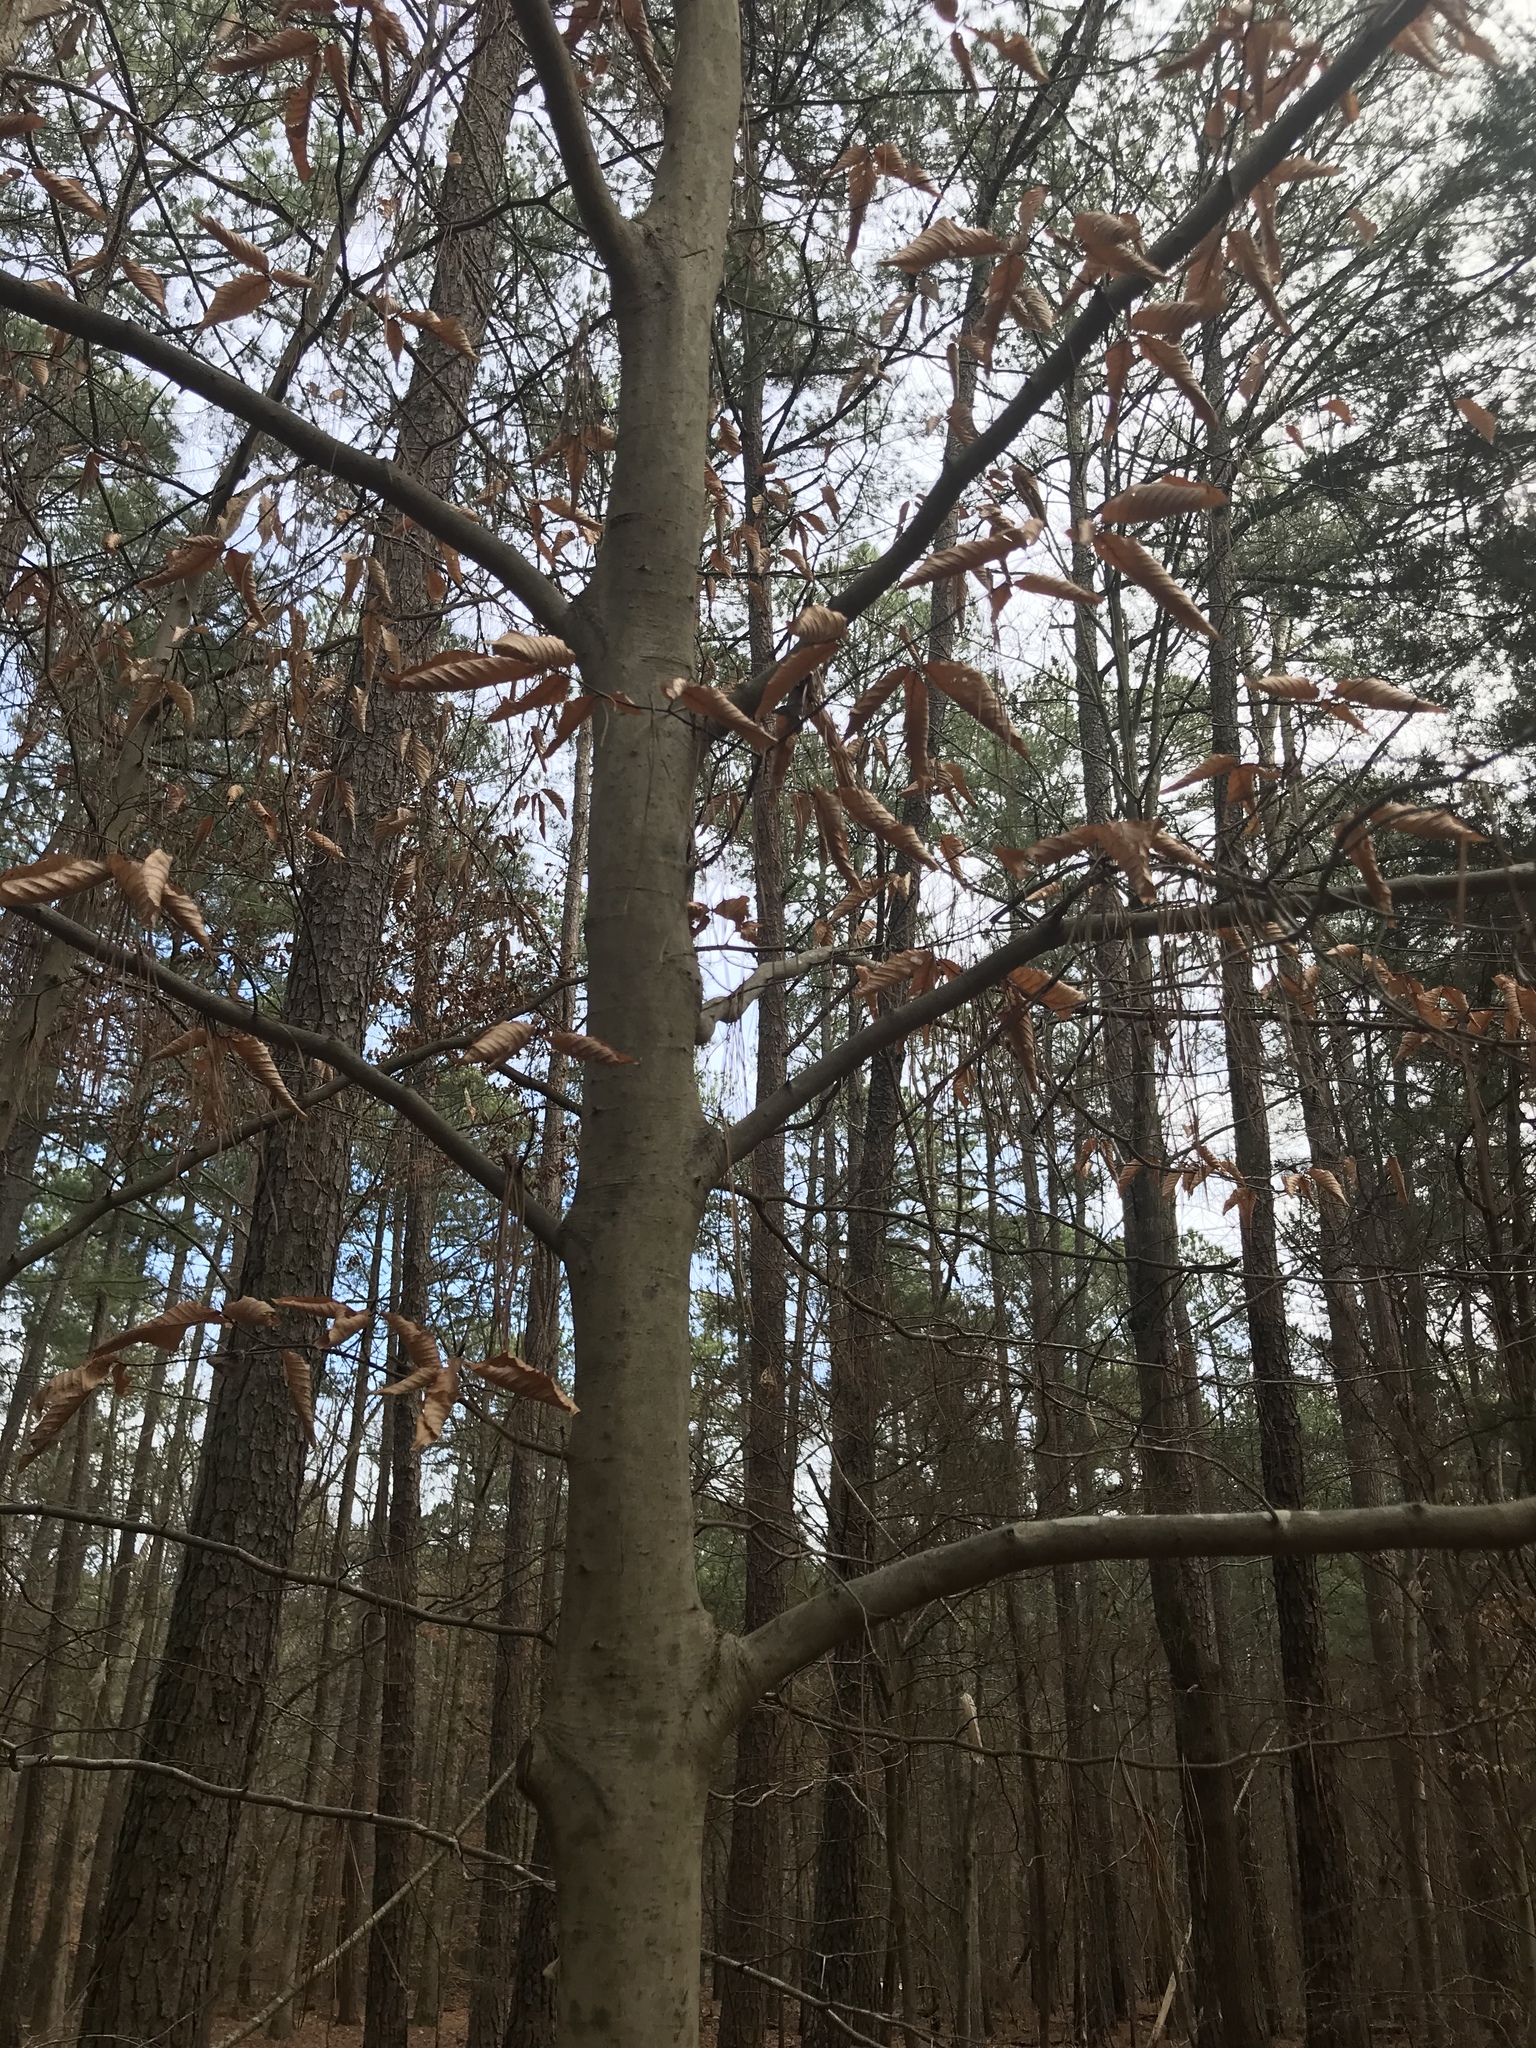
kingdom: Plantae
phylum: Tracheophyta
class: Magnoliopsida
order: Fagales
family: Fagaceae
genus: Fagus
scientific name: Fagus grandifolia
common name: American beech
